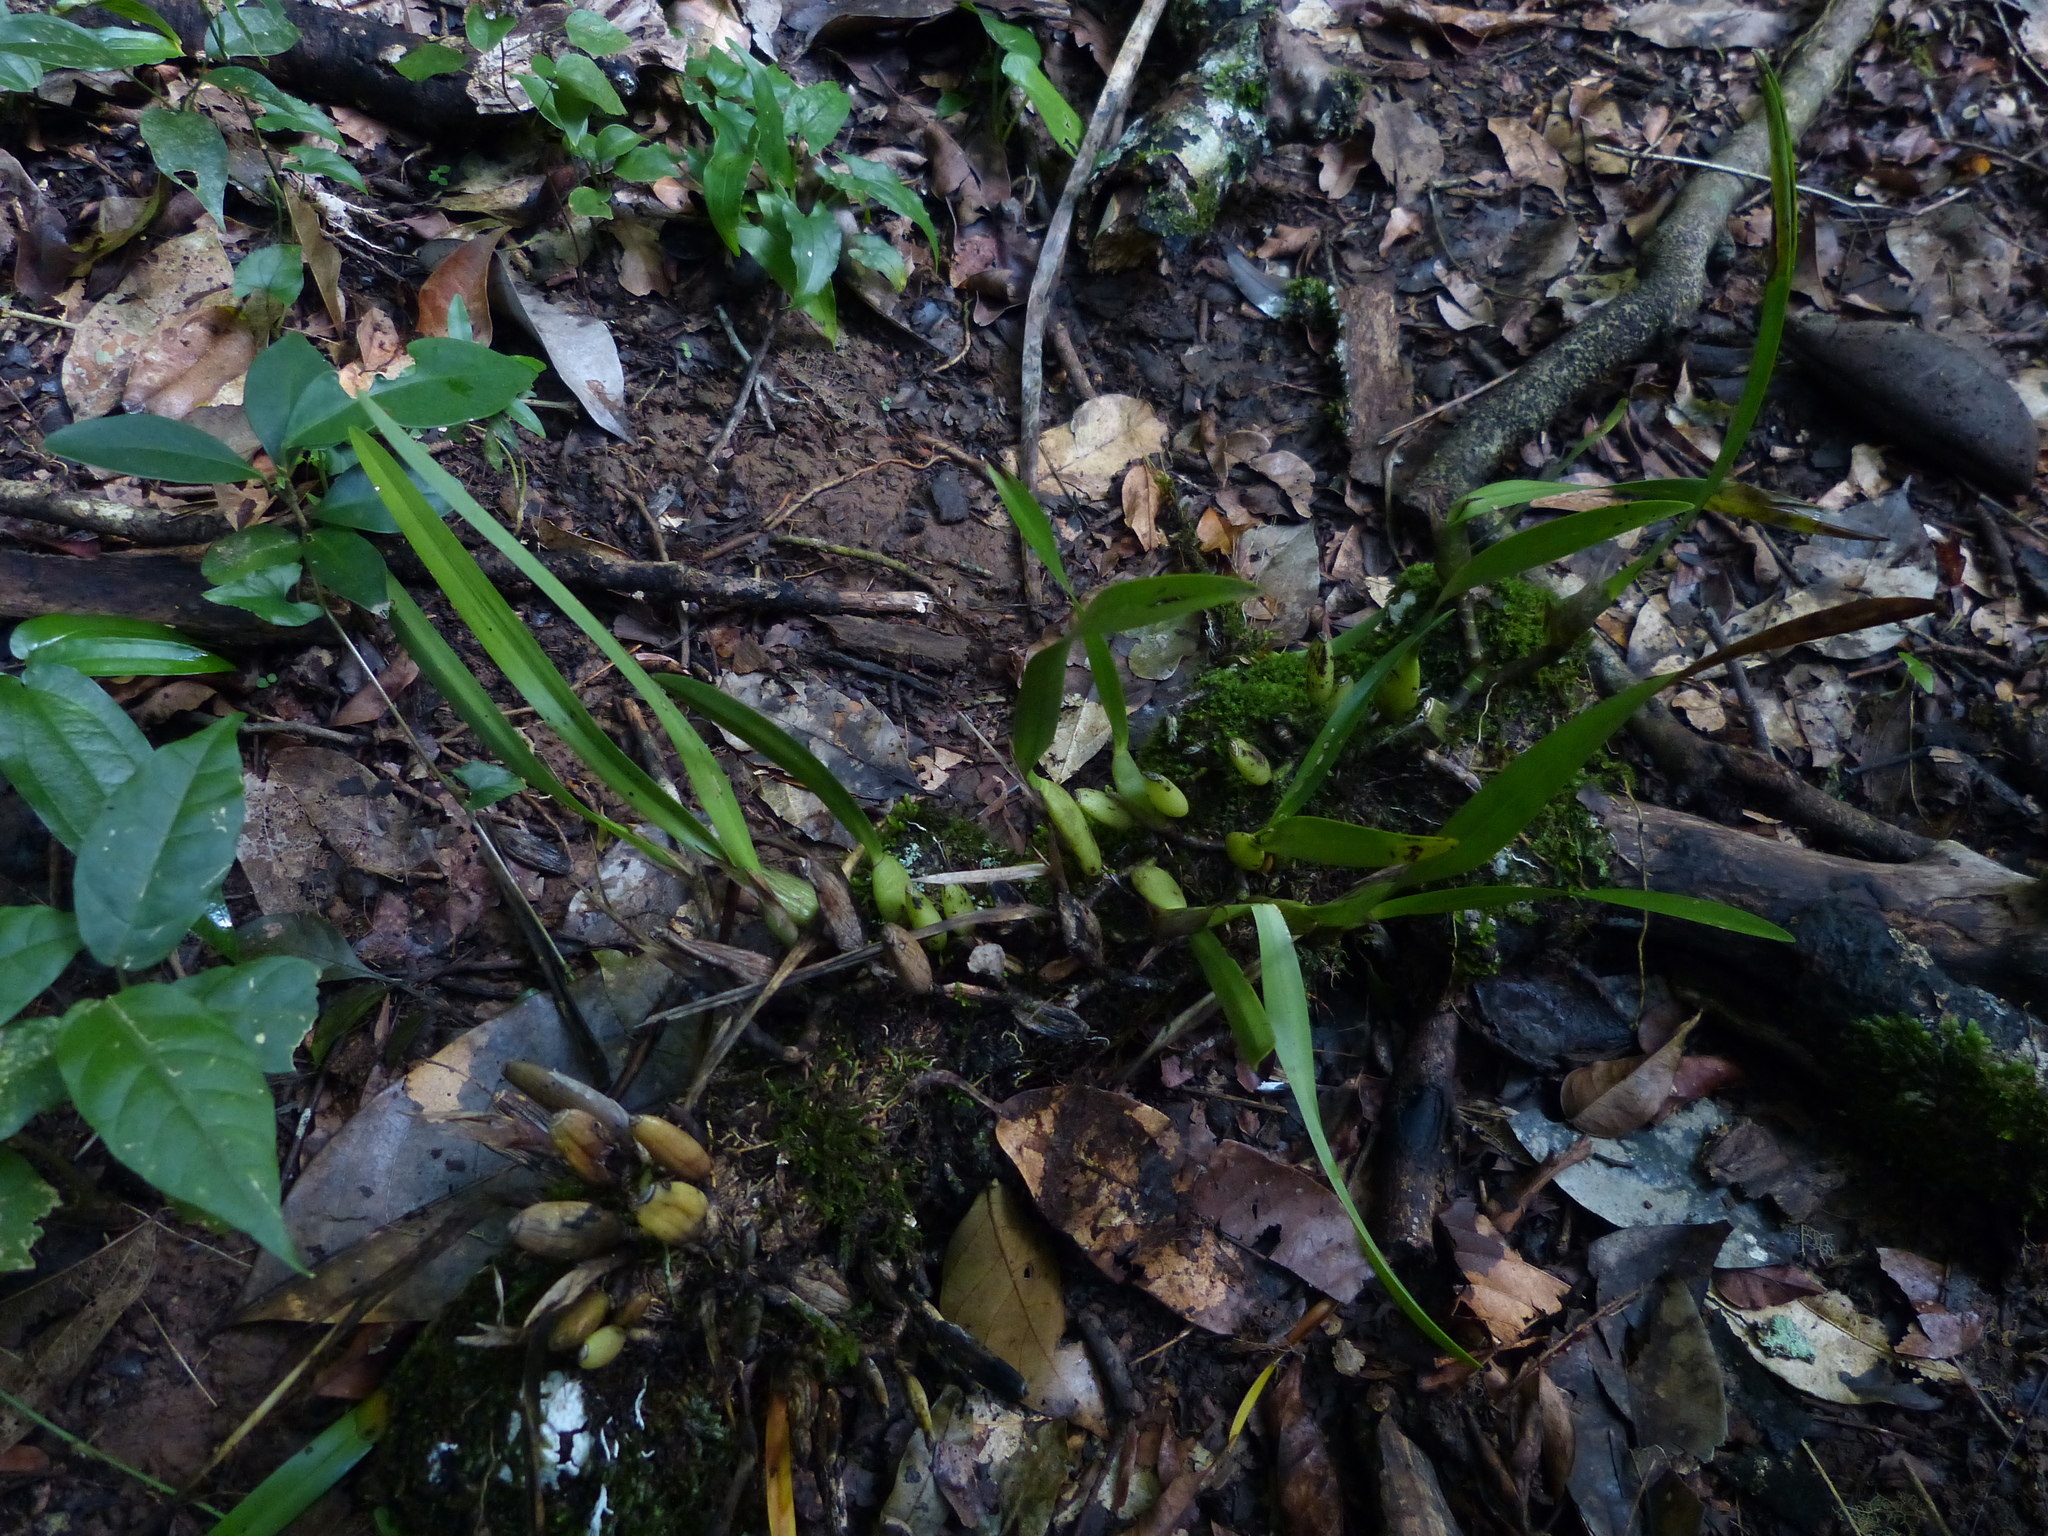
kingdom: Plantae
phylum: Tracheophyta
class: Liliopsida
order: Asparagales
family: Orchidaceae
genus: Nidema
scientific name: Nidema boothii
